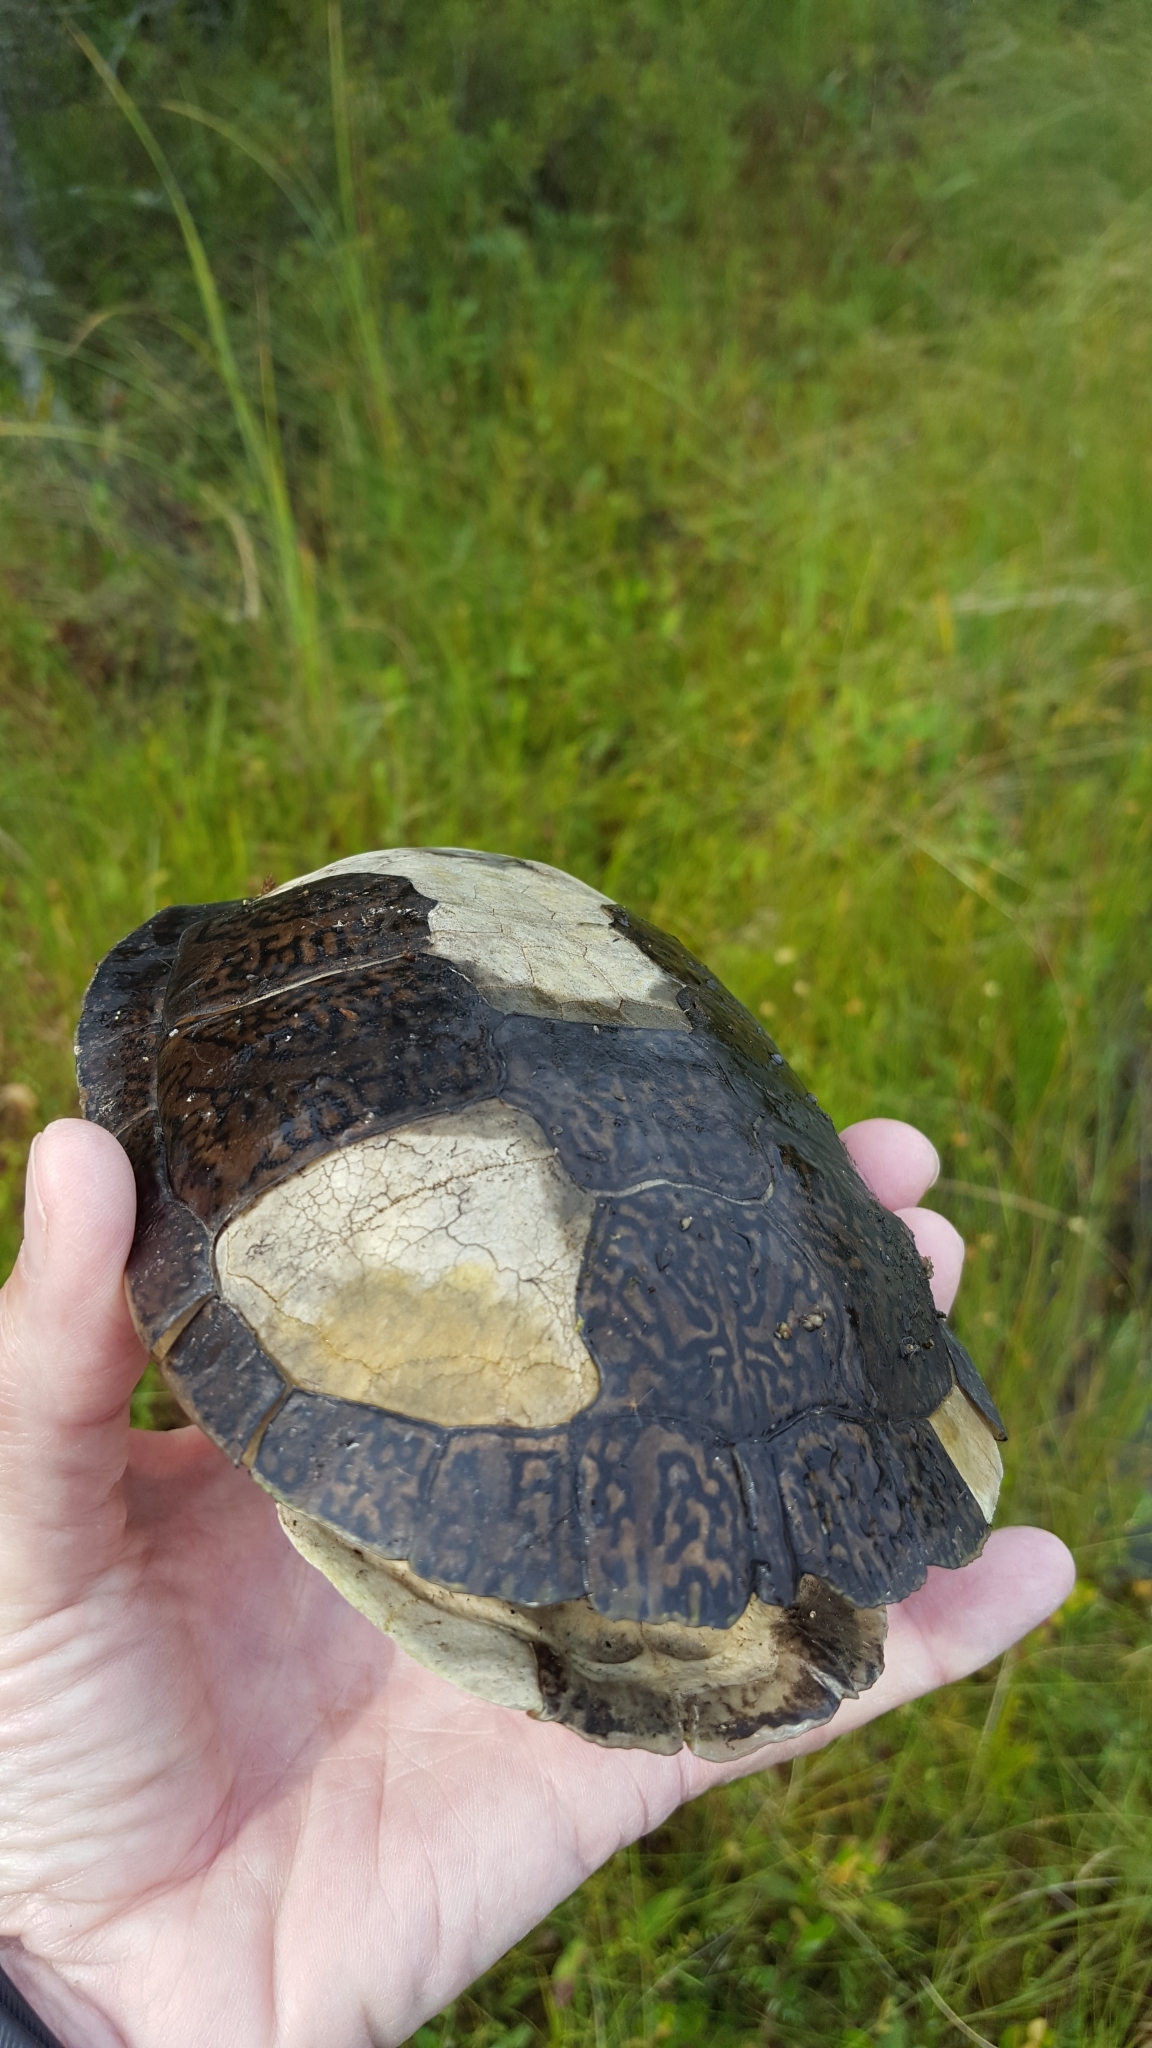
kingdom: Animalia
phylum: Chordata
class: Testudines
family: Emydidae
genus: Chrysemys
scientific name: Chrysemys picta
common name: Painted turtle
